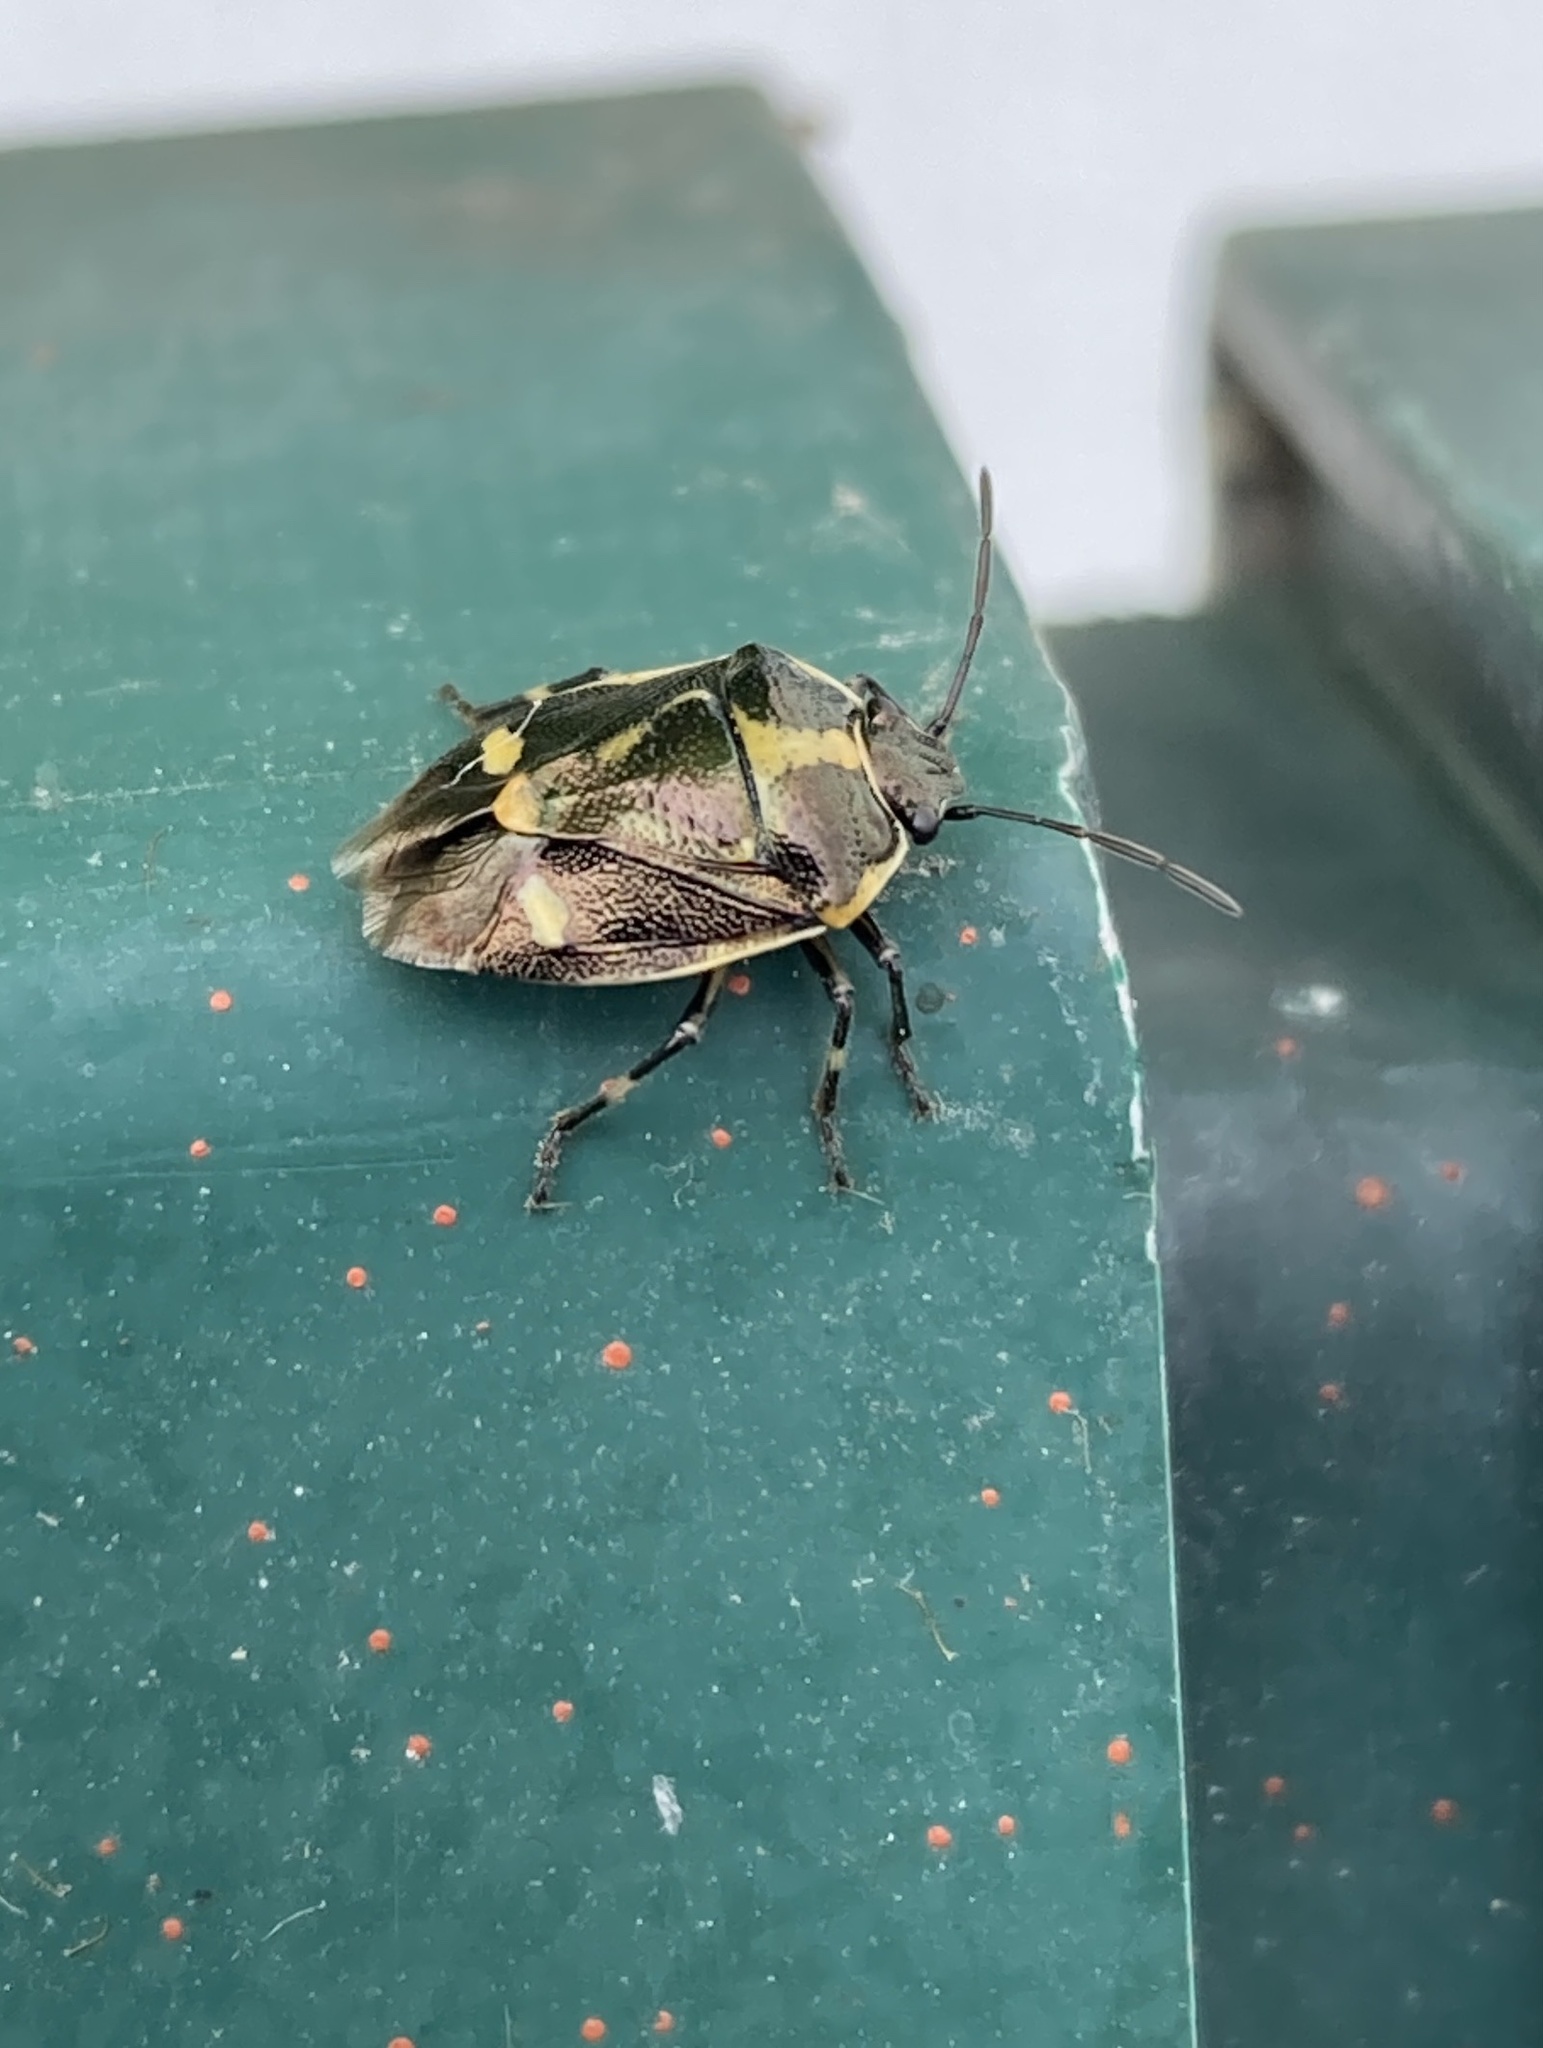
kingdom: Animalia
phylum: Arthropoda
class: Insecta
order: Hemiptera
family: Pentatomidae
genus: Eurydema
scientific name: Eurydema oleracea
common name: Cabbage bug
